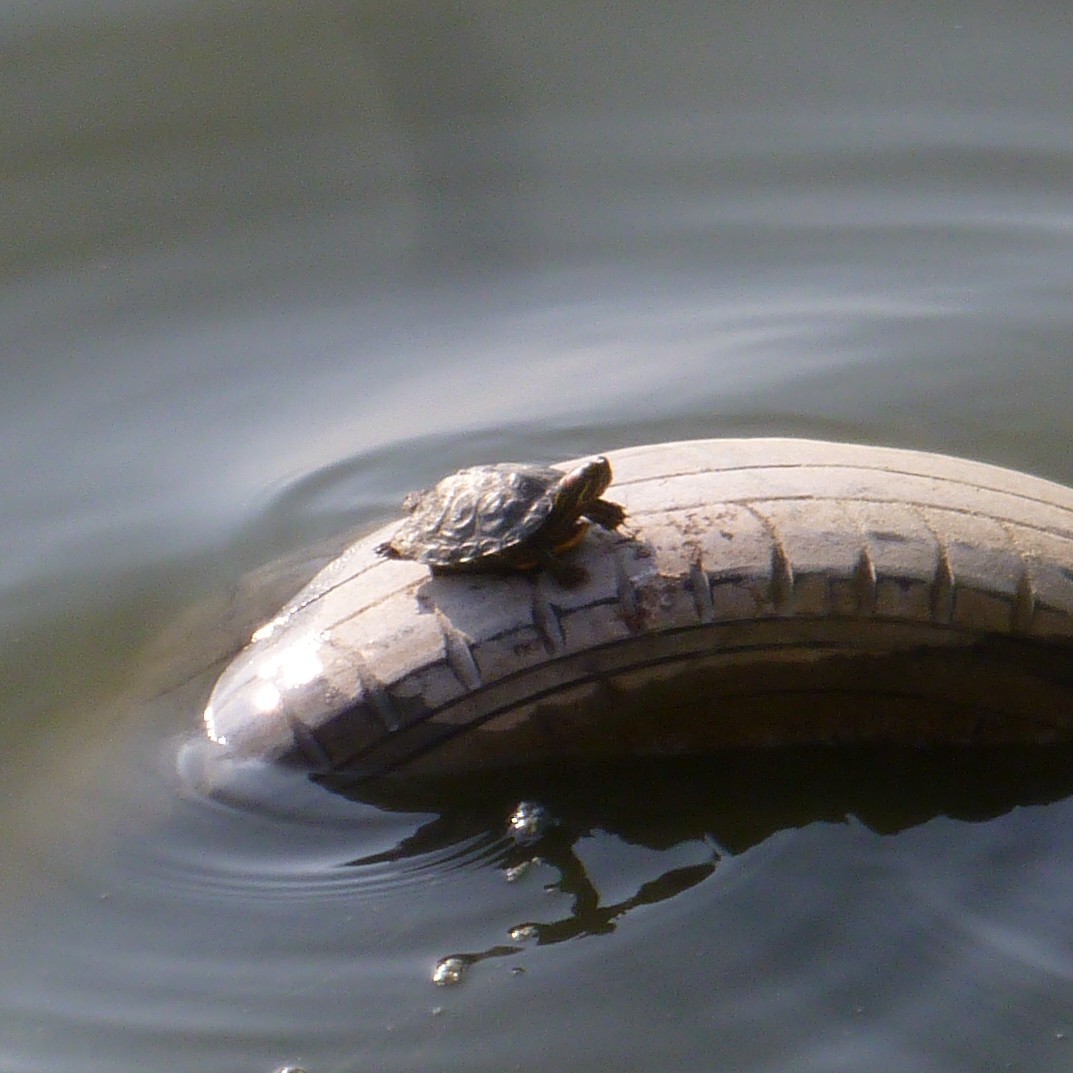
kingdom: Animalia
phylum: Chordata
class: Testudines
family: Emydidae
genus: Trachemys
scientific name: Trachemys scripta
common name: Slider
